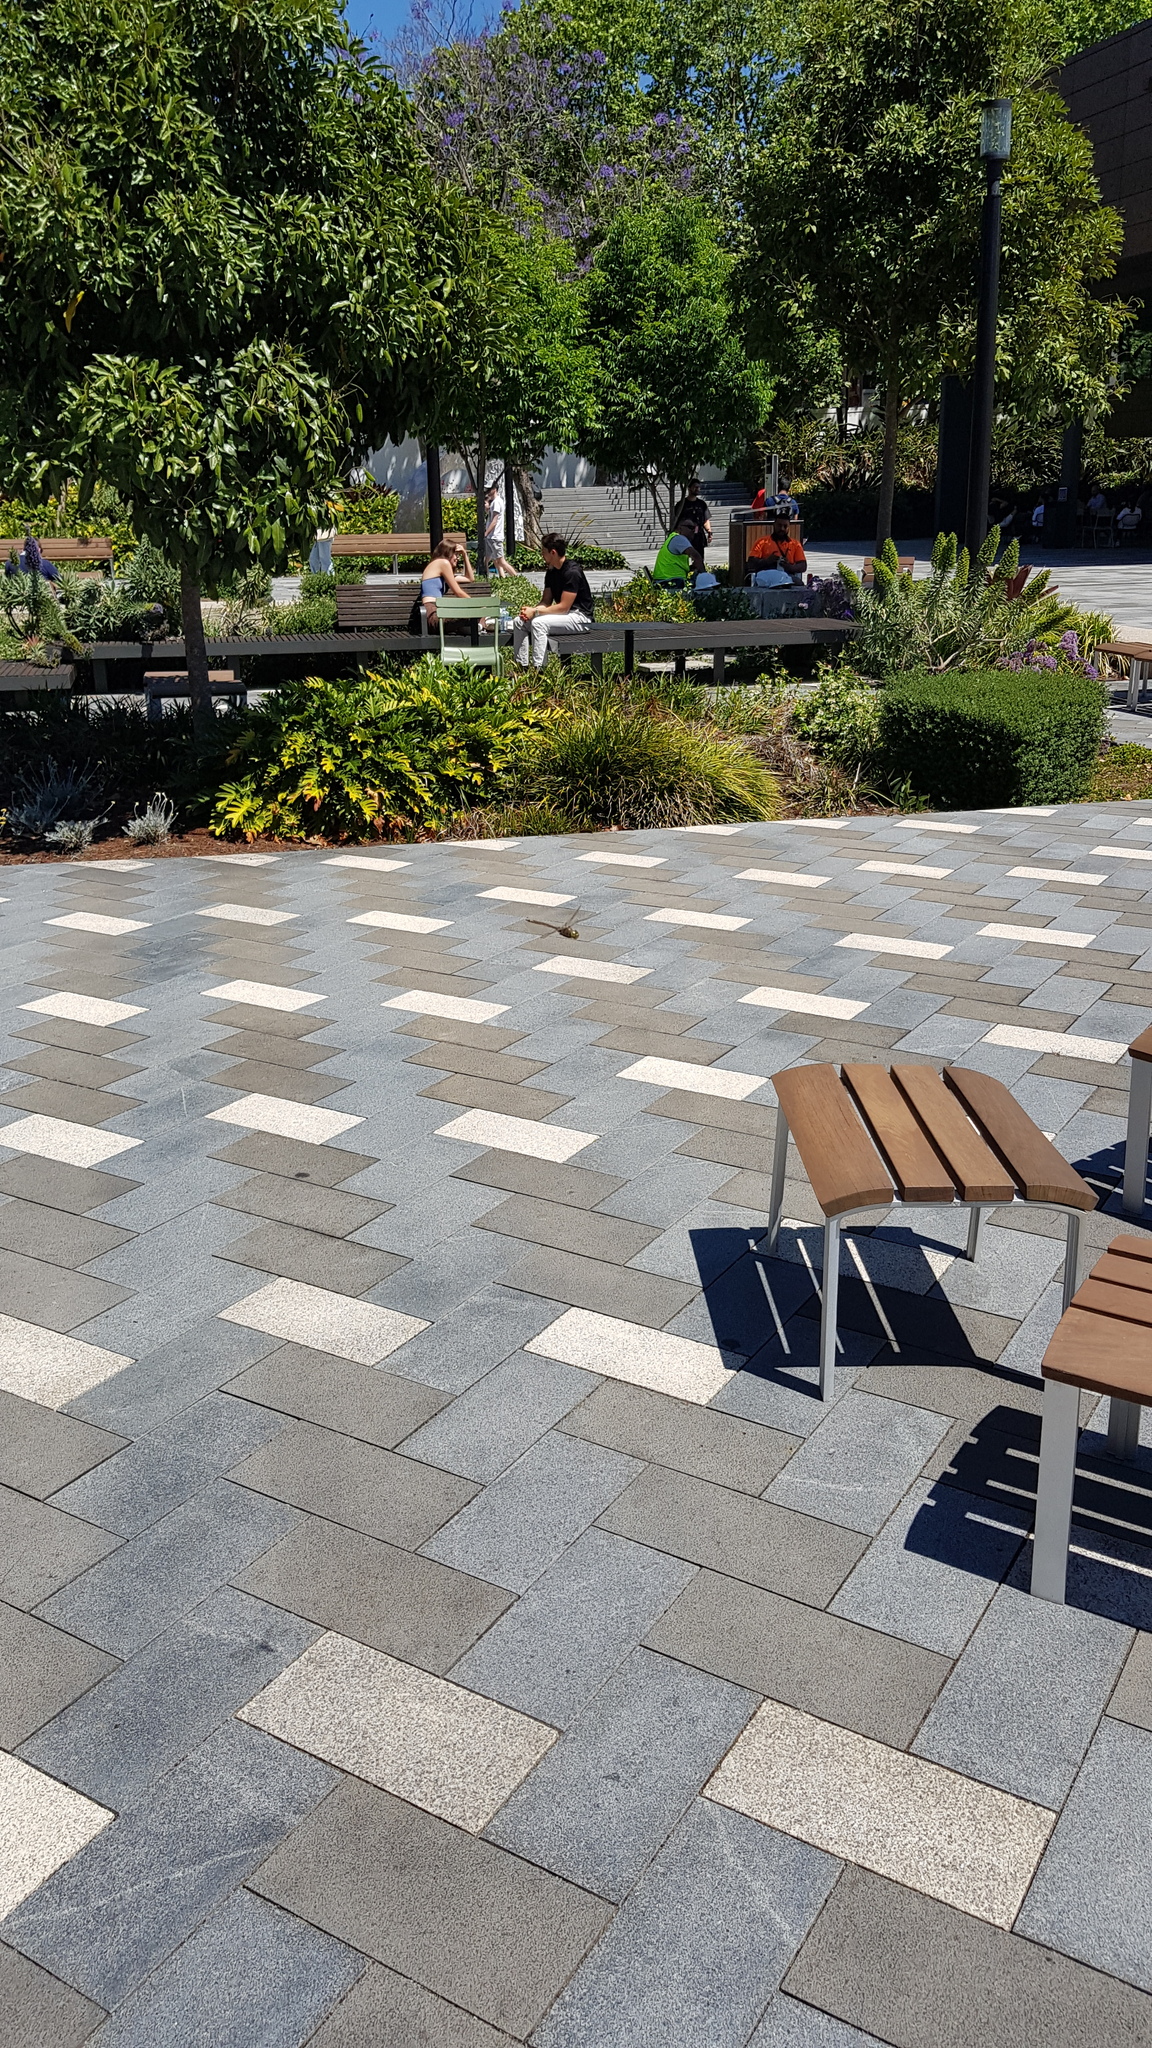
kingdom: Animalia
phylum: Arthropoda
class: Insecta
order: Odonata
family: Aeshnidae
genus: Anax
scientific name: Anax papuensis
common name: Australian emperor
